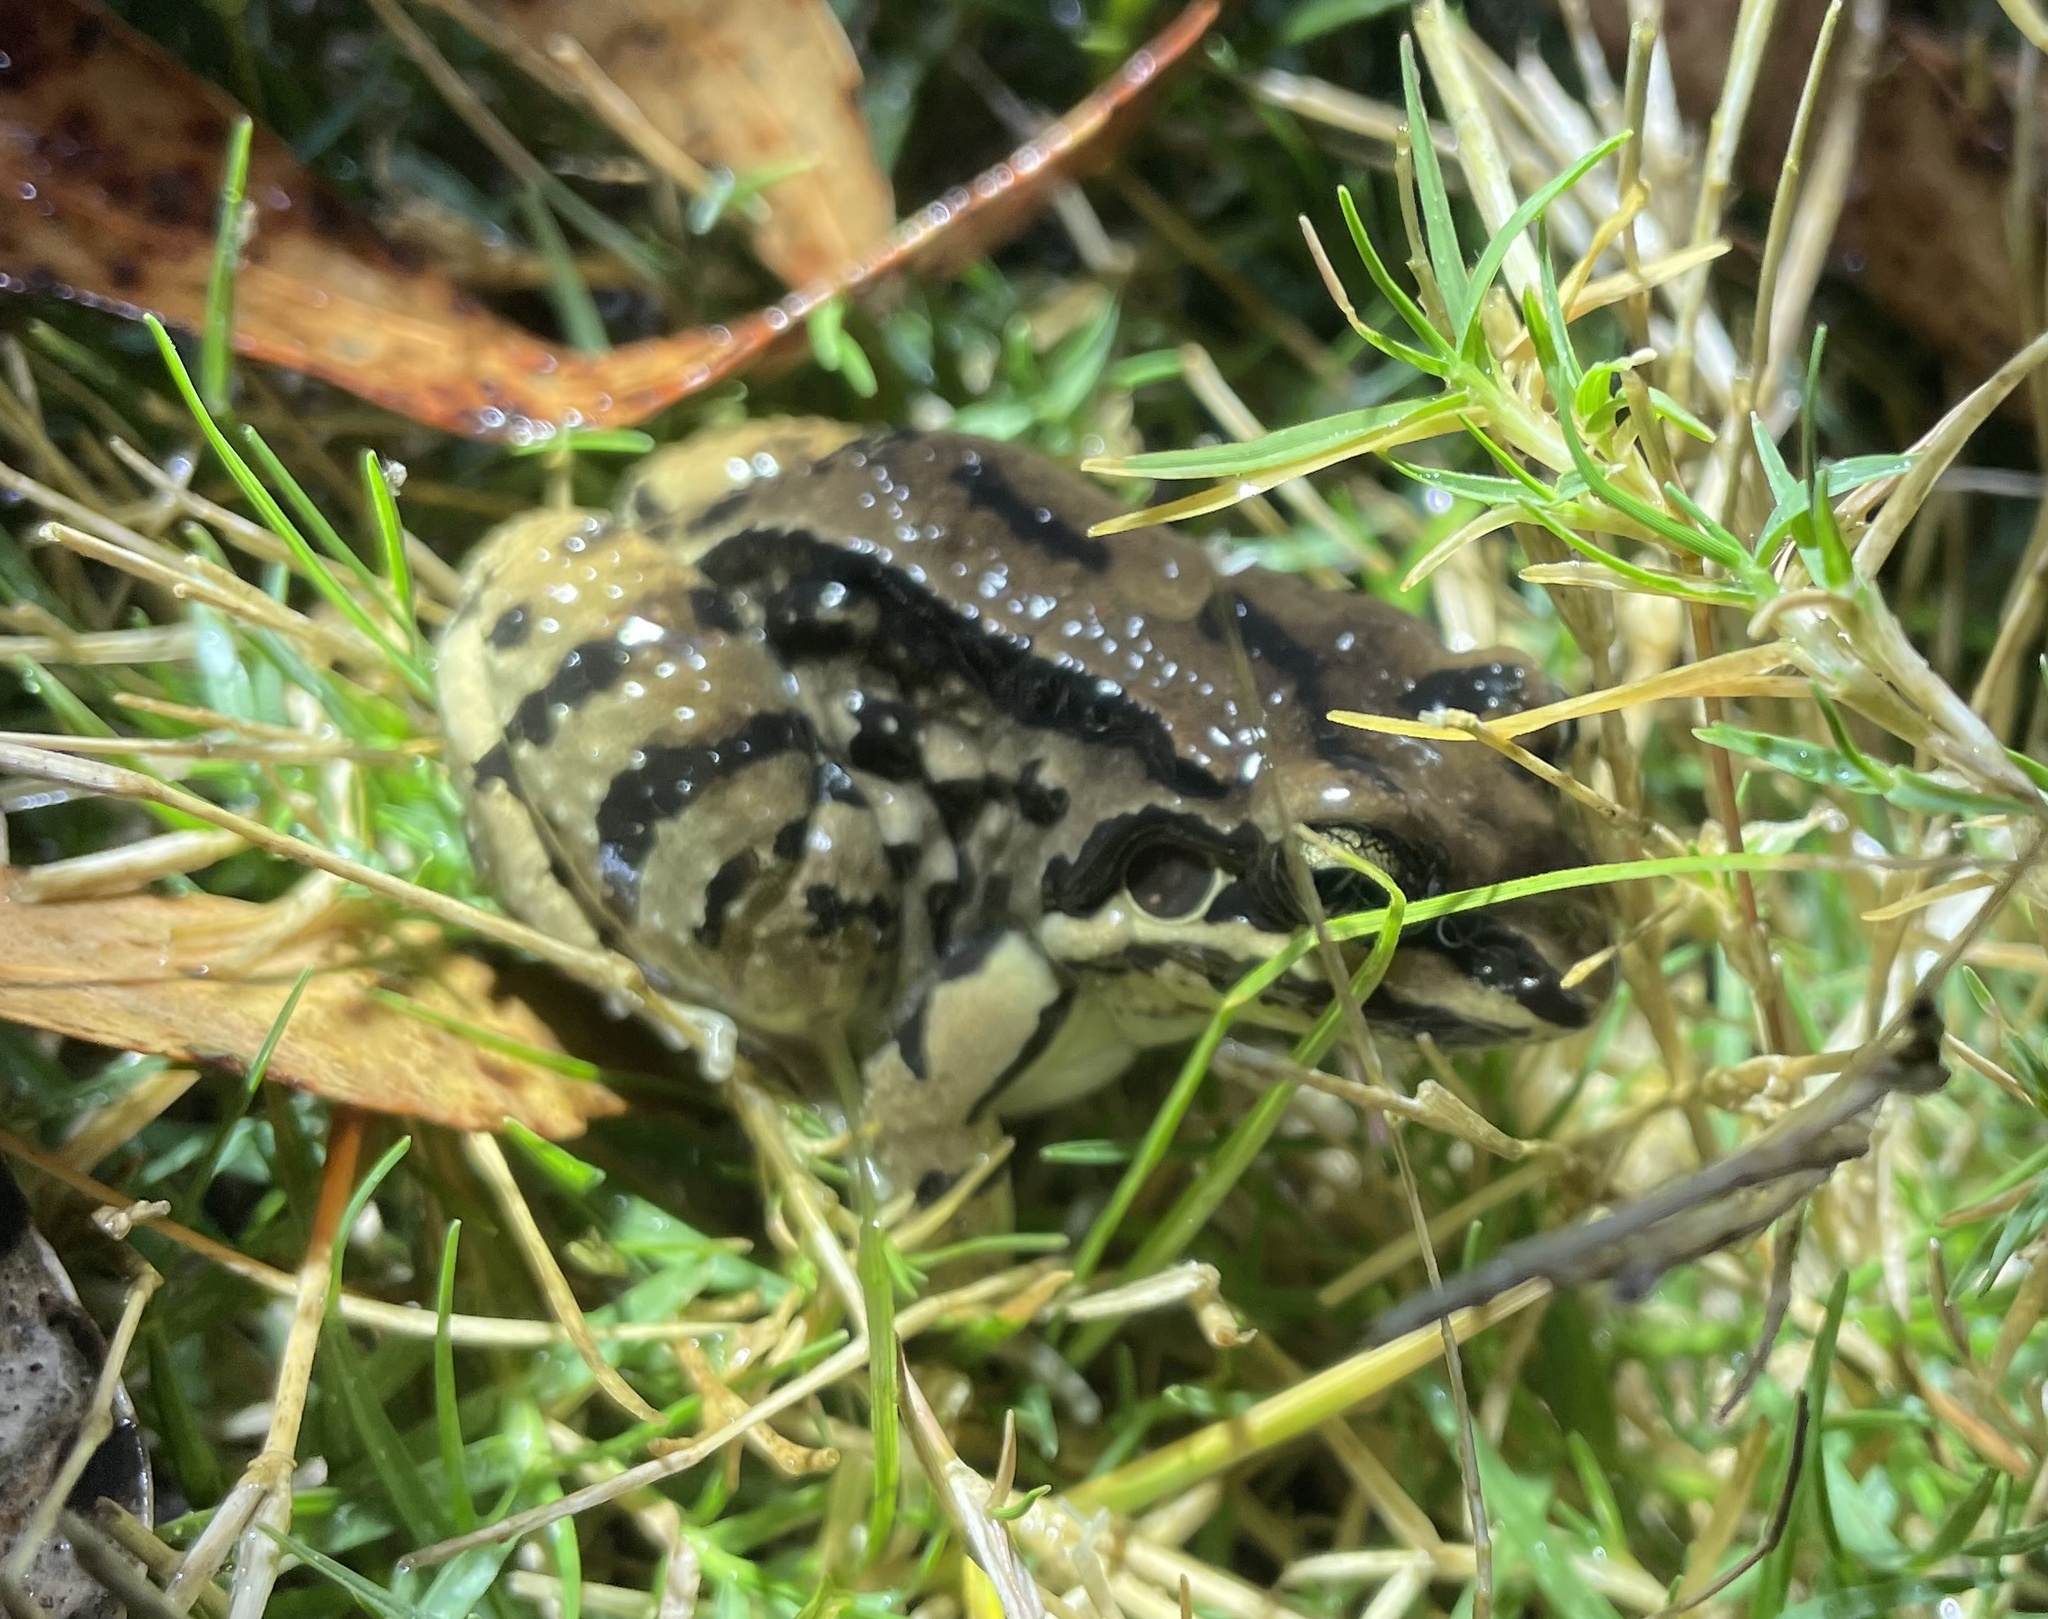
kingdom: Animalia
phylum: Chordata
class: Amphibia
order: Anura
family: Leptodactylidae
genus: Leptodactylus
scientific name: Leptodactylus mystacinus
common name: Moustached frog
